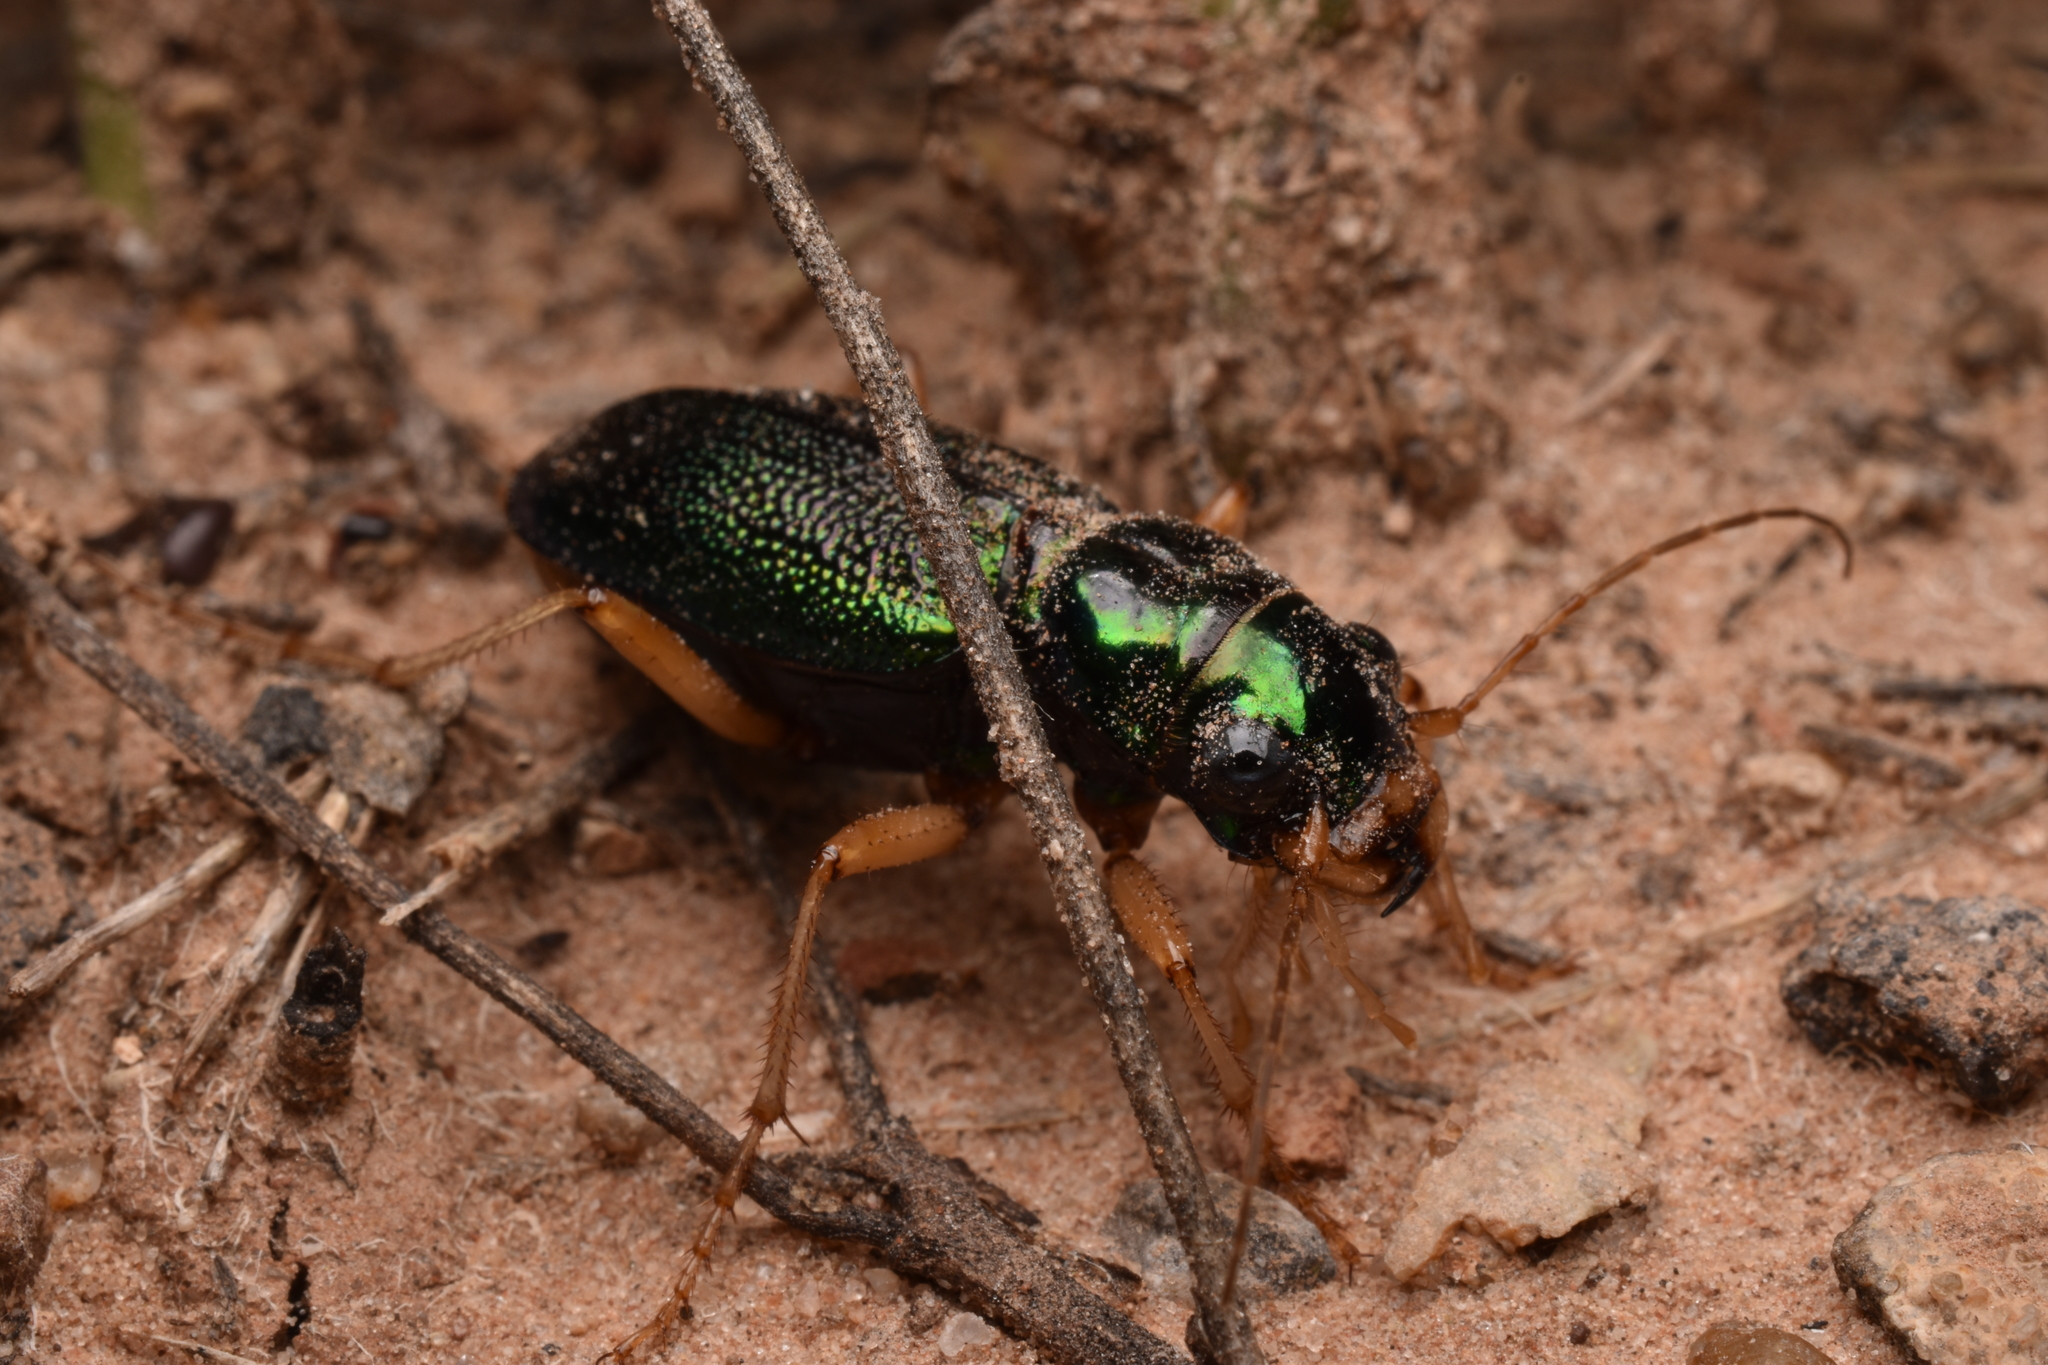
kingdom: Animalia
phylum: Arthropoda
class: Insecta
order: Coleoptera
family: Carabidae
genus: Tetracha
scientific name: Tetracha virginica
